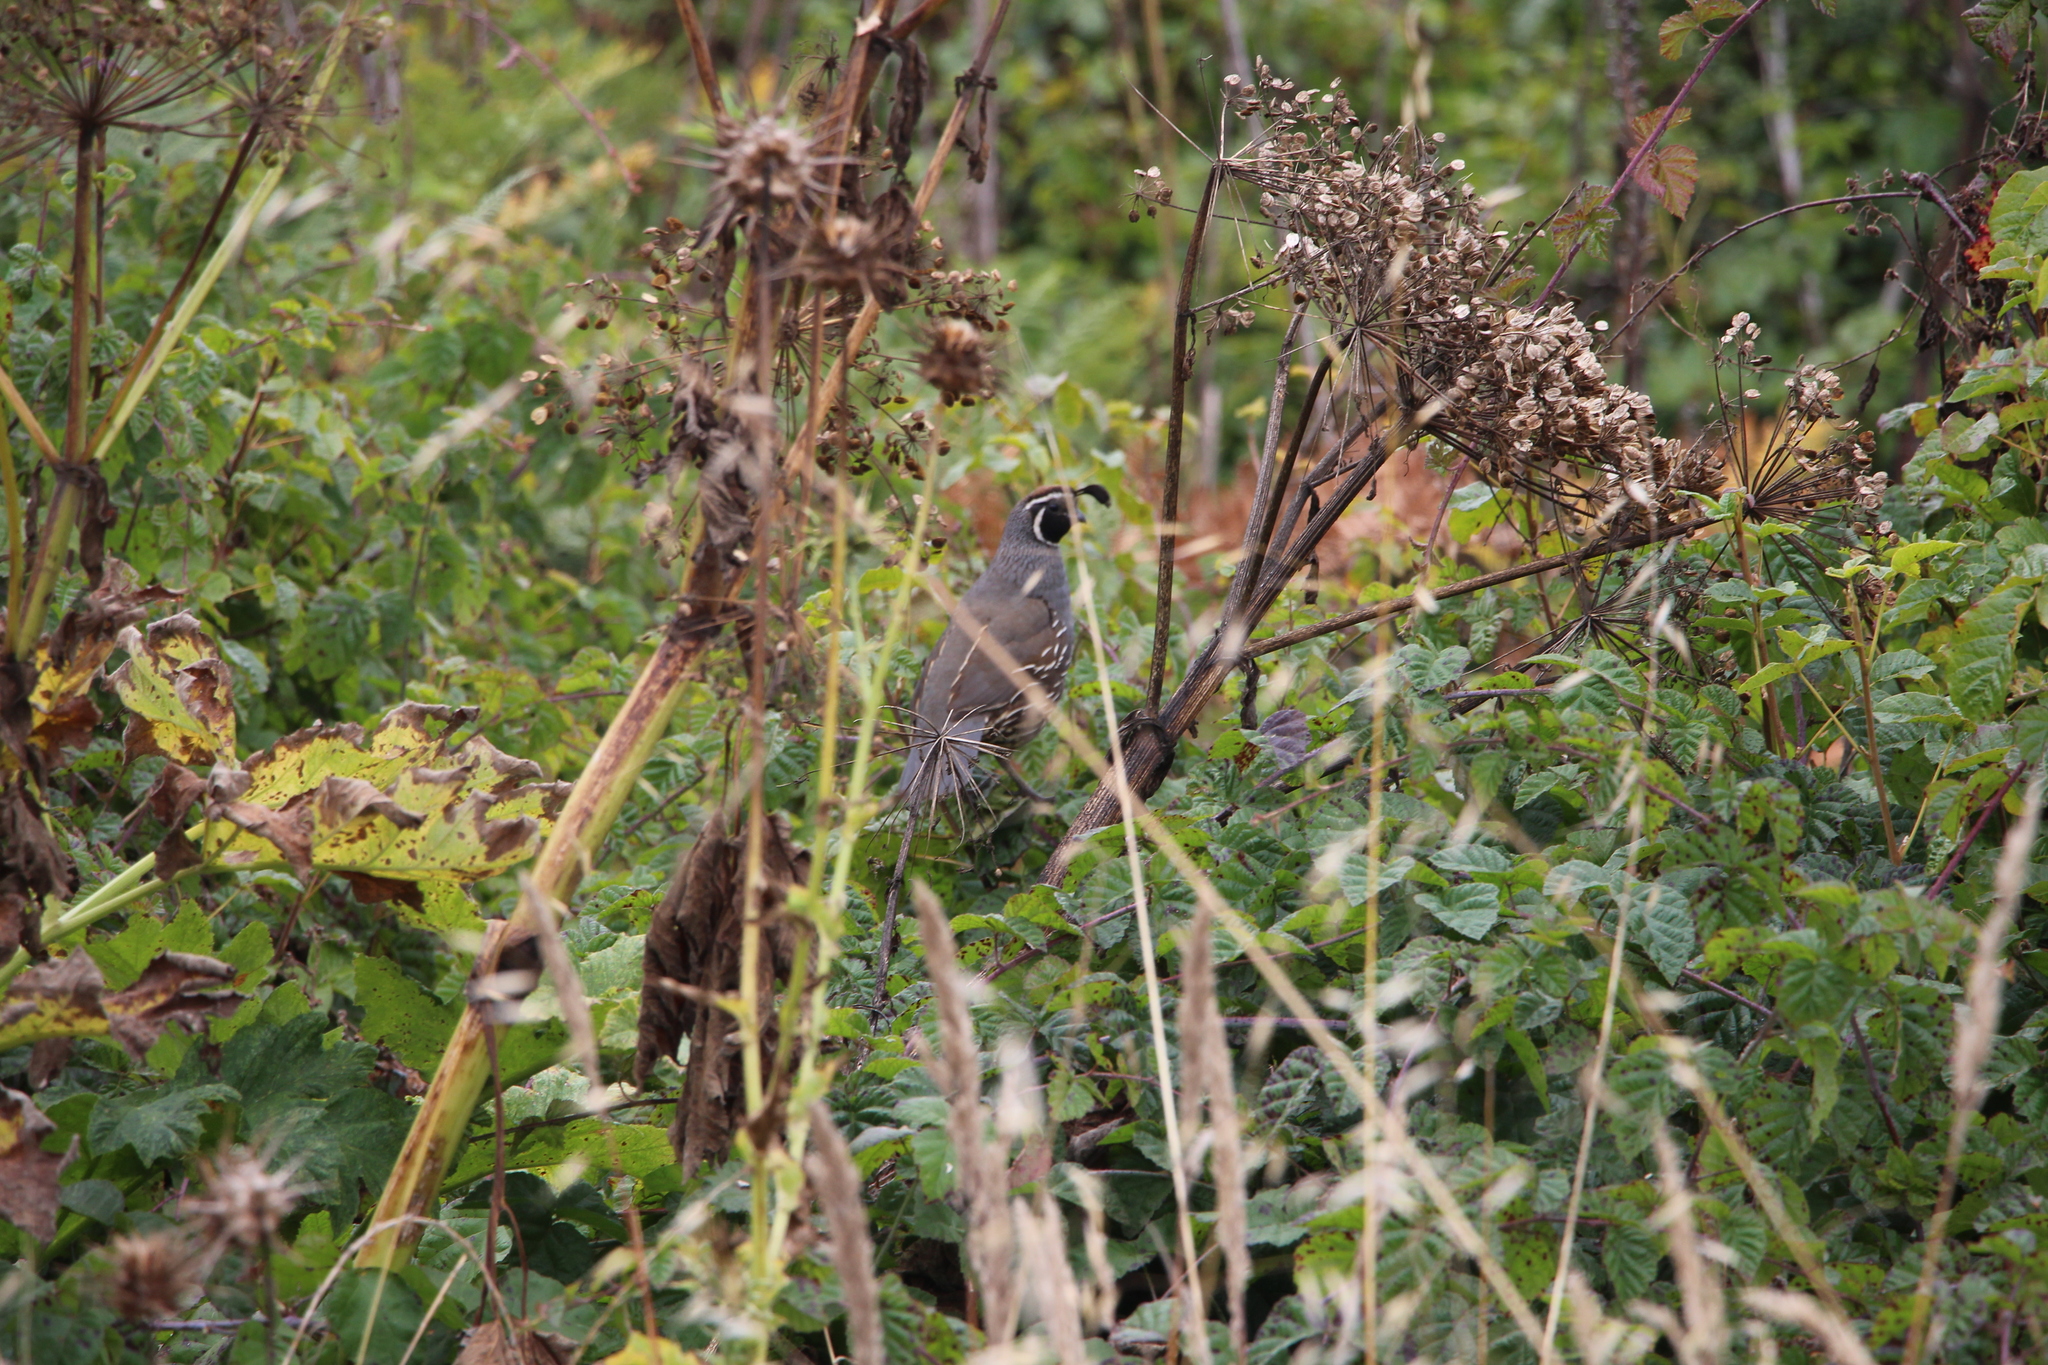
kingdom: Animalia
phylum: Chordata
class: Aves
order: Galliformes
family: Odontophoridae
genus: Callipepla
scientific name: Callipepla californica
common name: California quail
